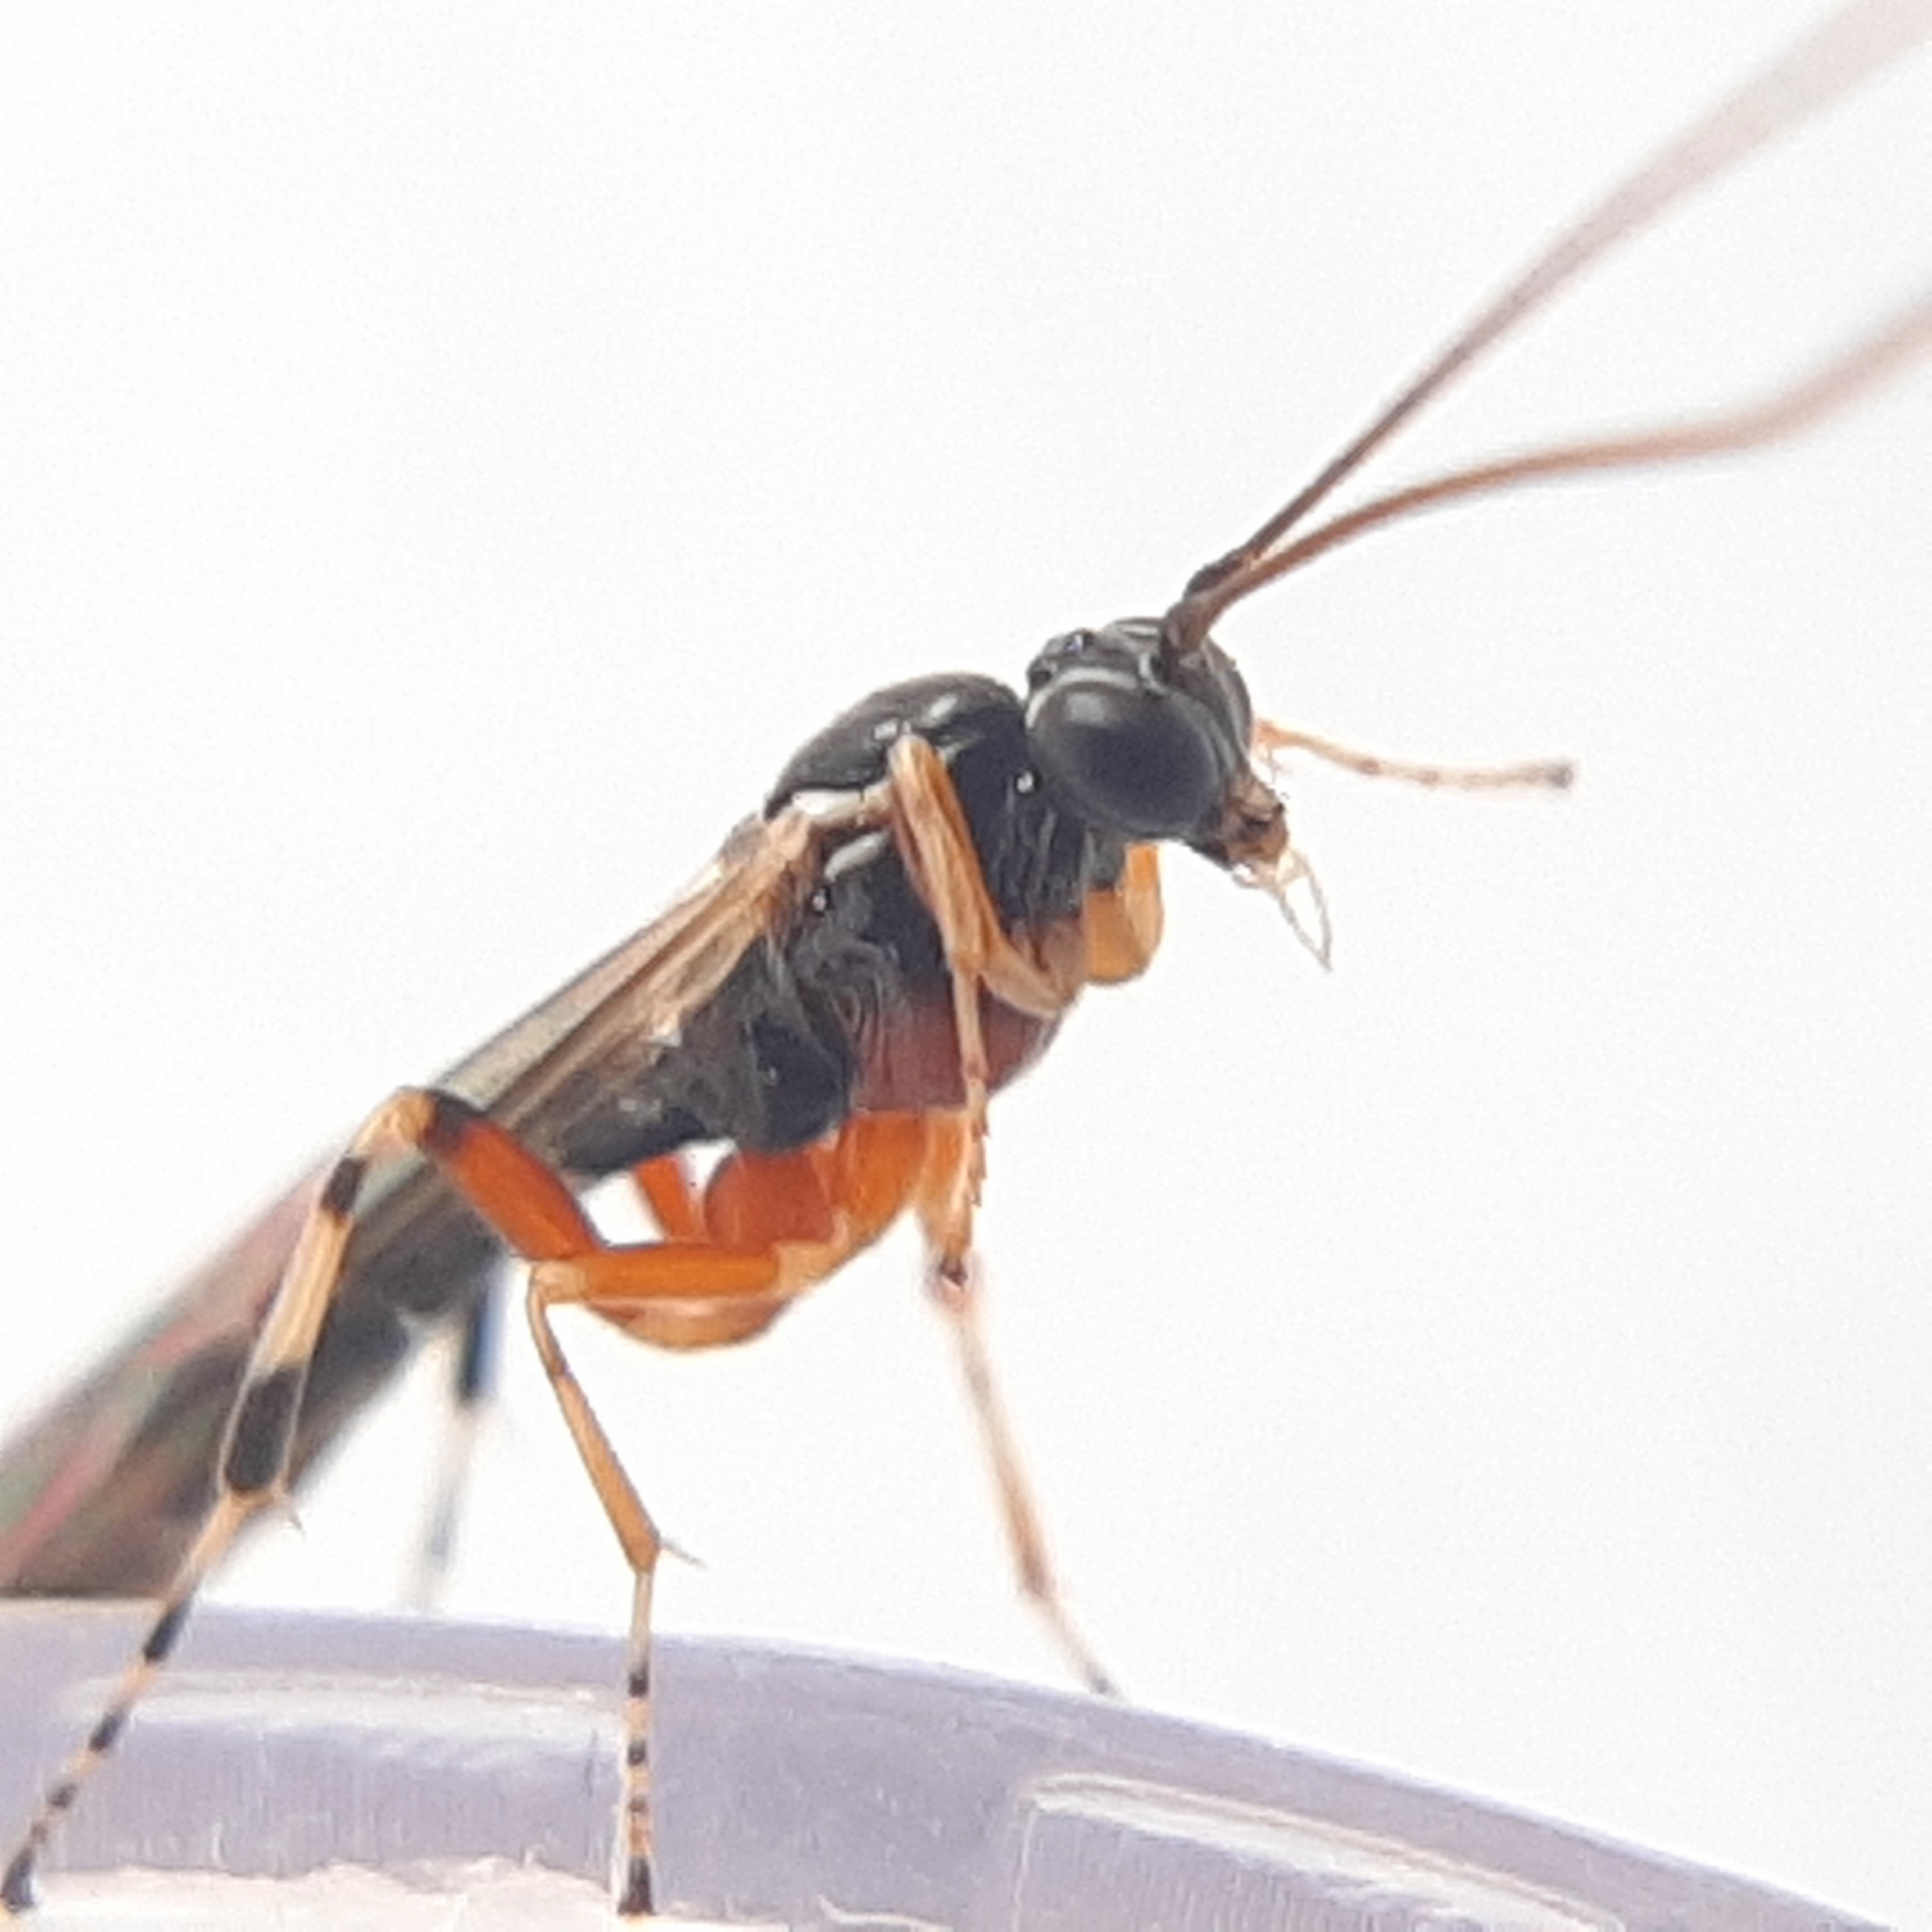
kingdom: Animalia
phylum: Arthropoda
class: Insecta
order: Hymenoptera
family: Ichneumonidae
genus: Tromatobia
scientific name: Tromatobia ovivora
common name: Parasitoid wasp
